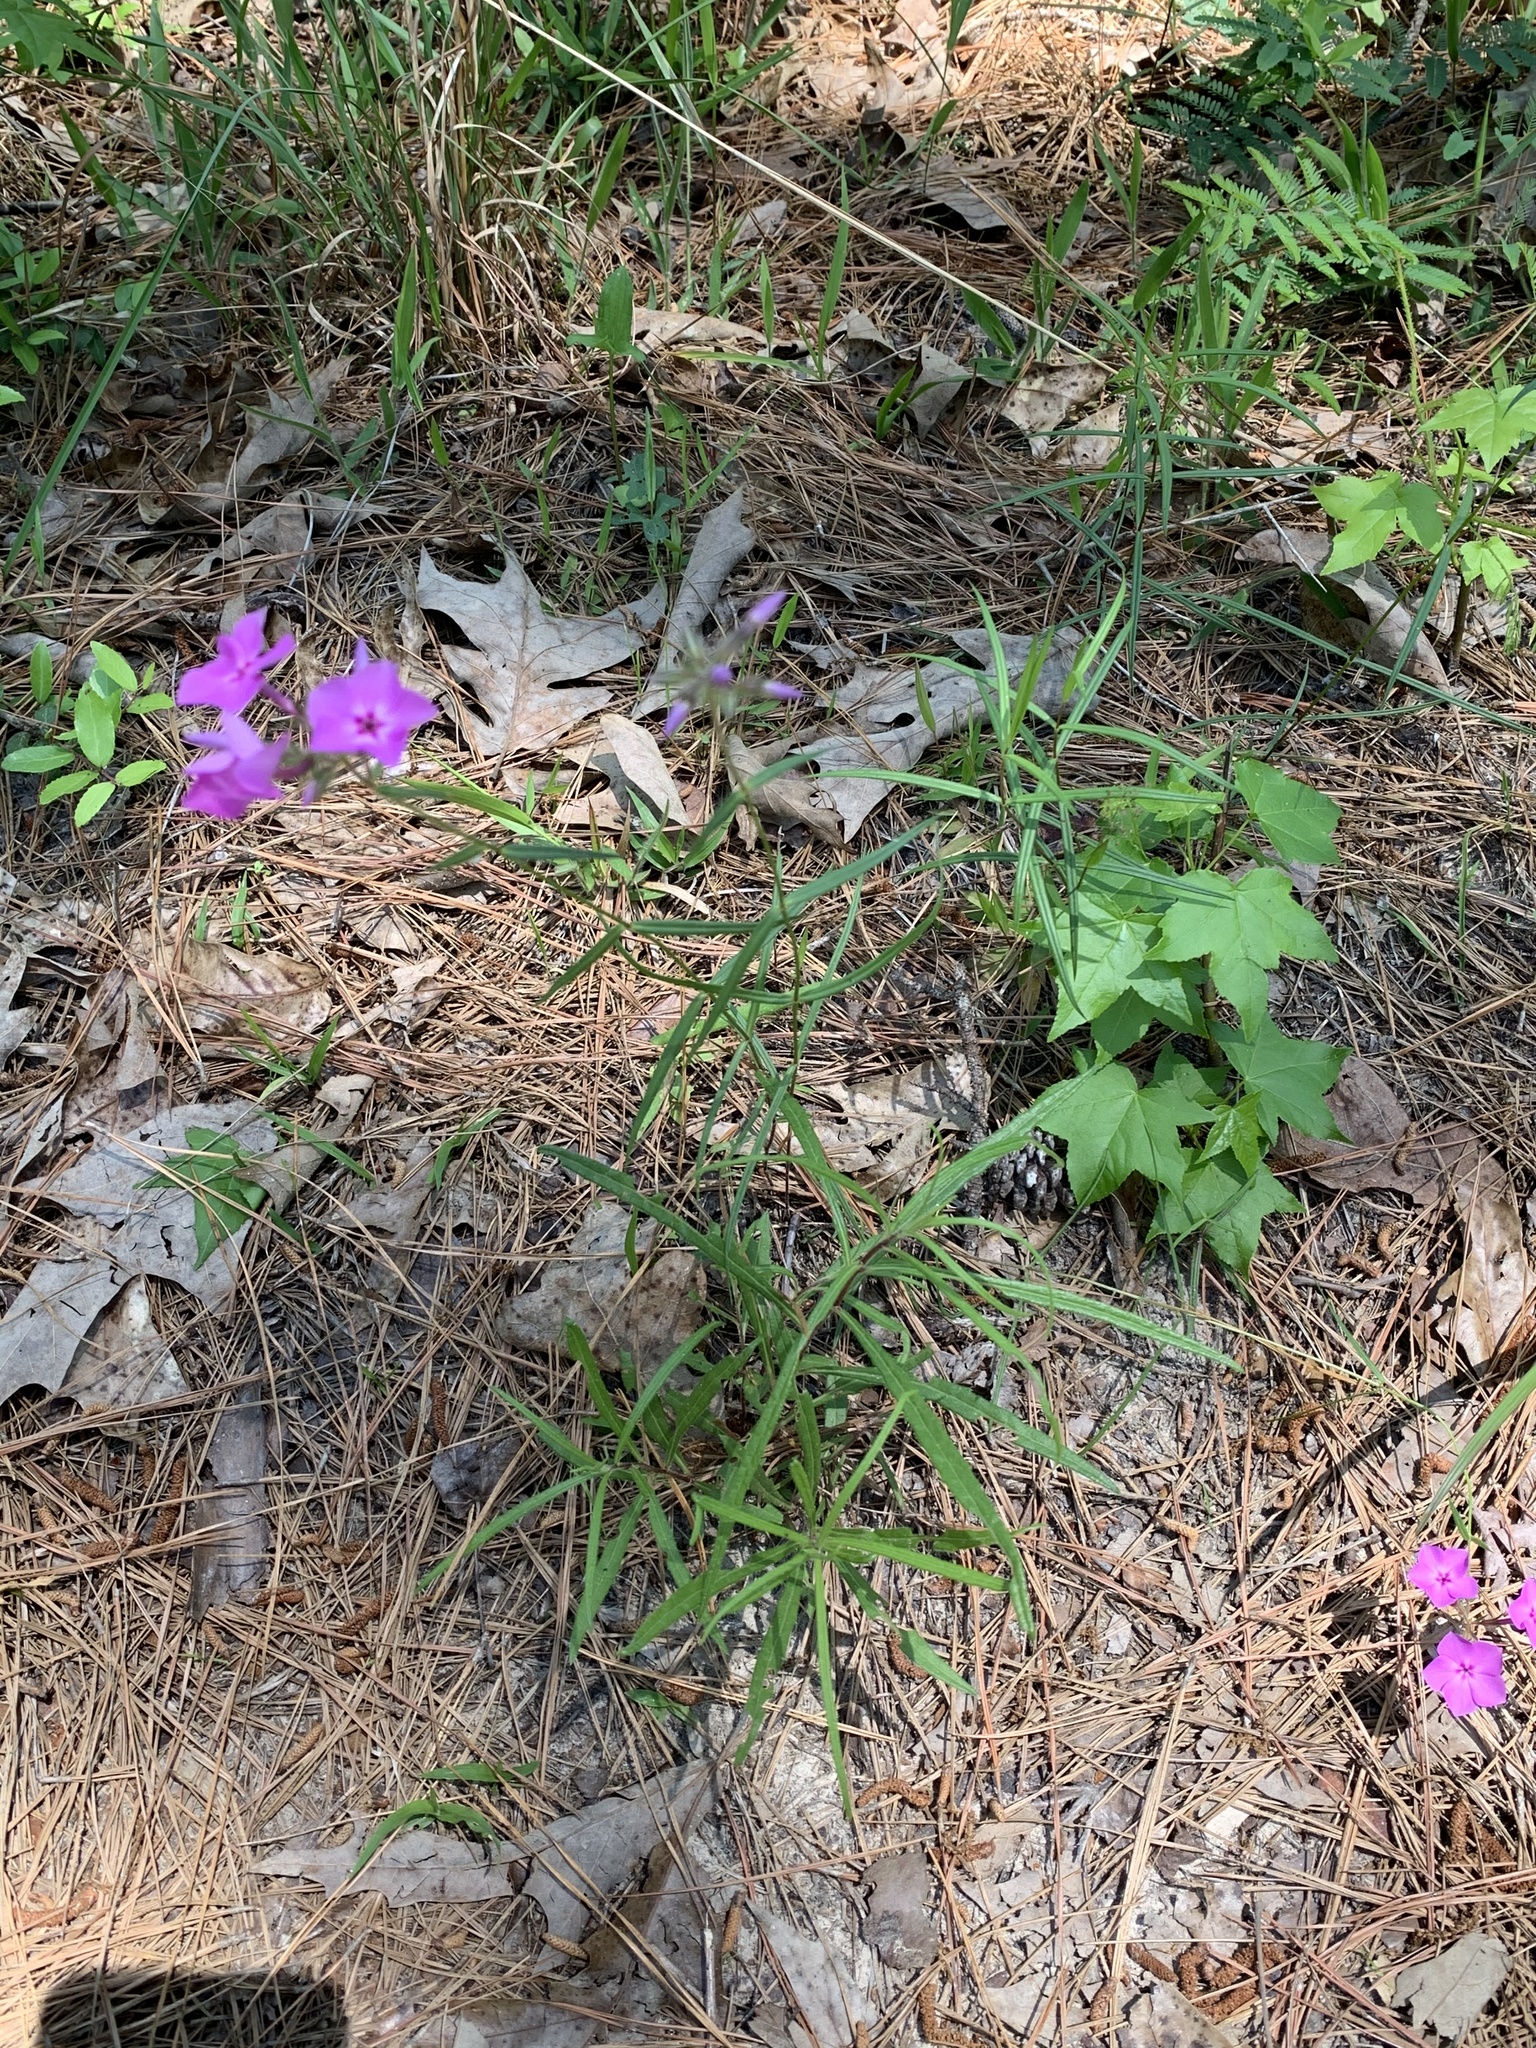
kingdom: Plantae
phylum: Tracheophyta
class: Magnoliopsida
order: Ericales
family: Polemoniaceae
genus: Phlox
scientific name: Phlox pilosa
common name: Prairie phlox
